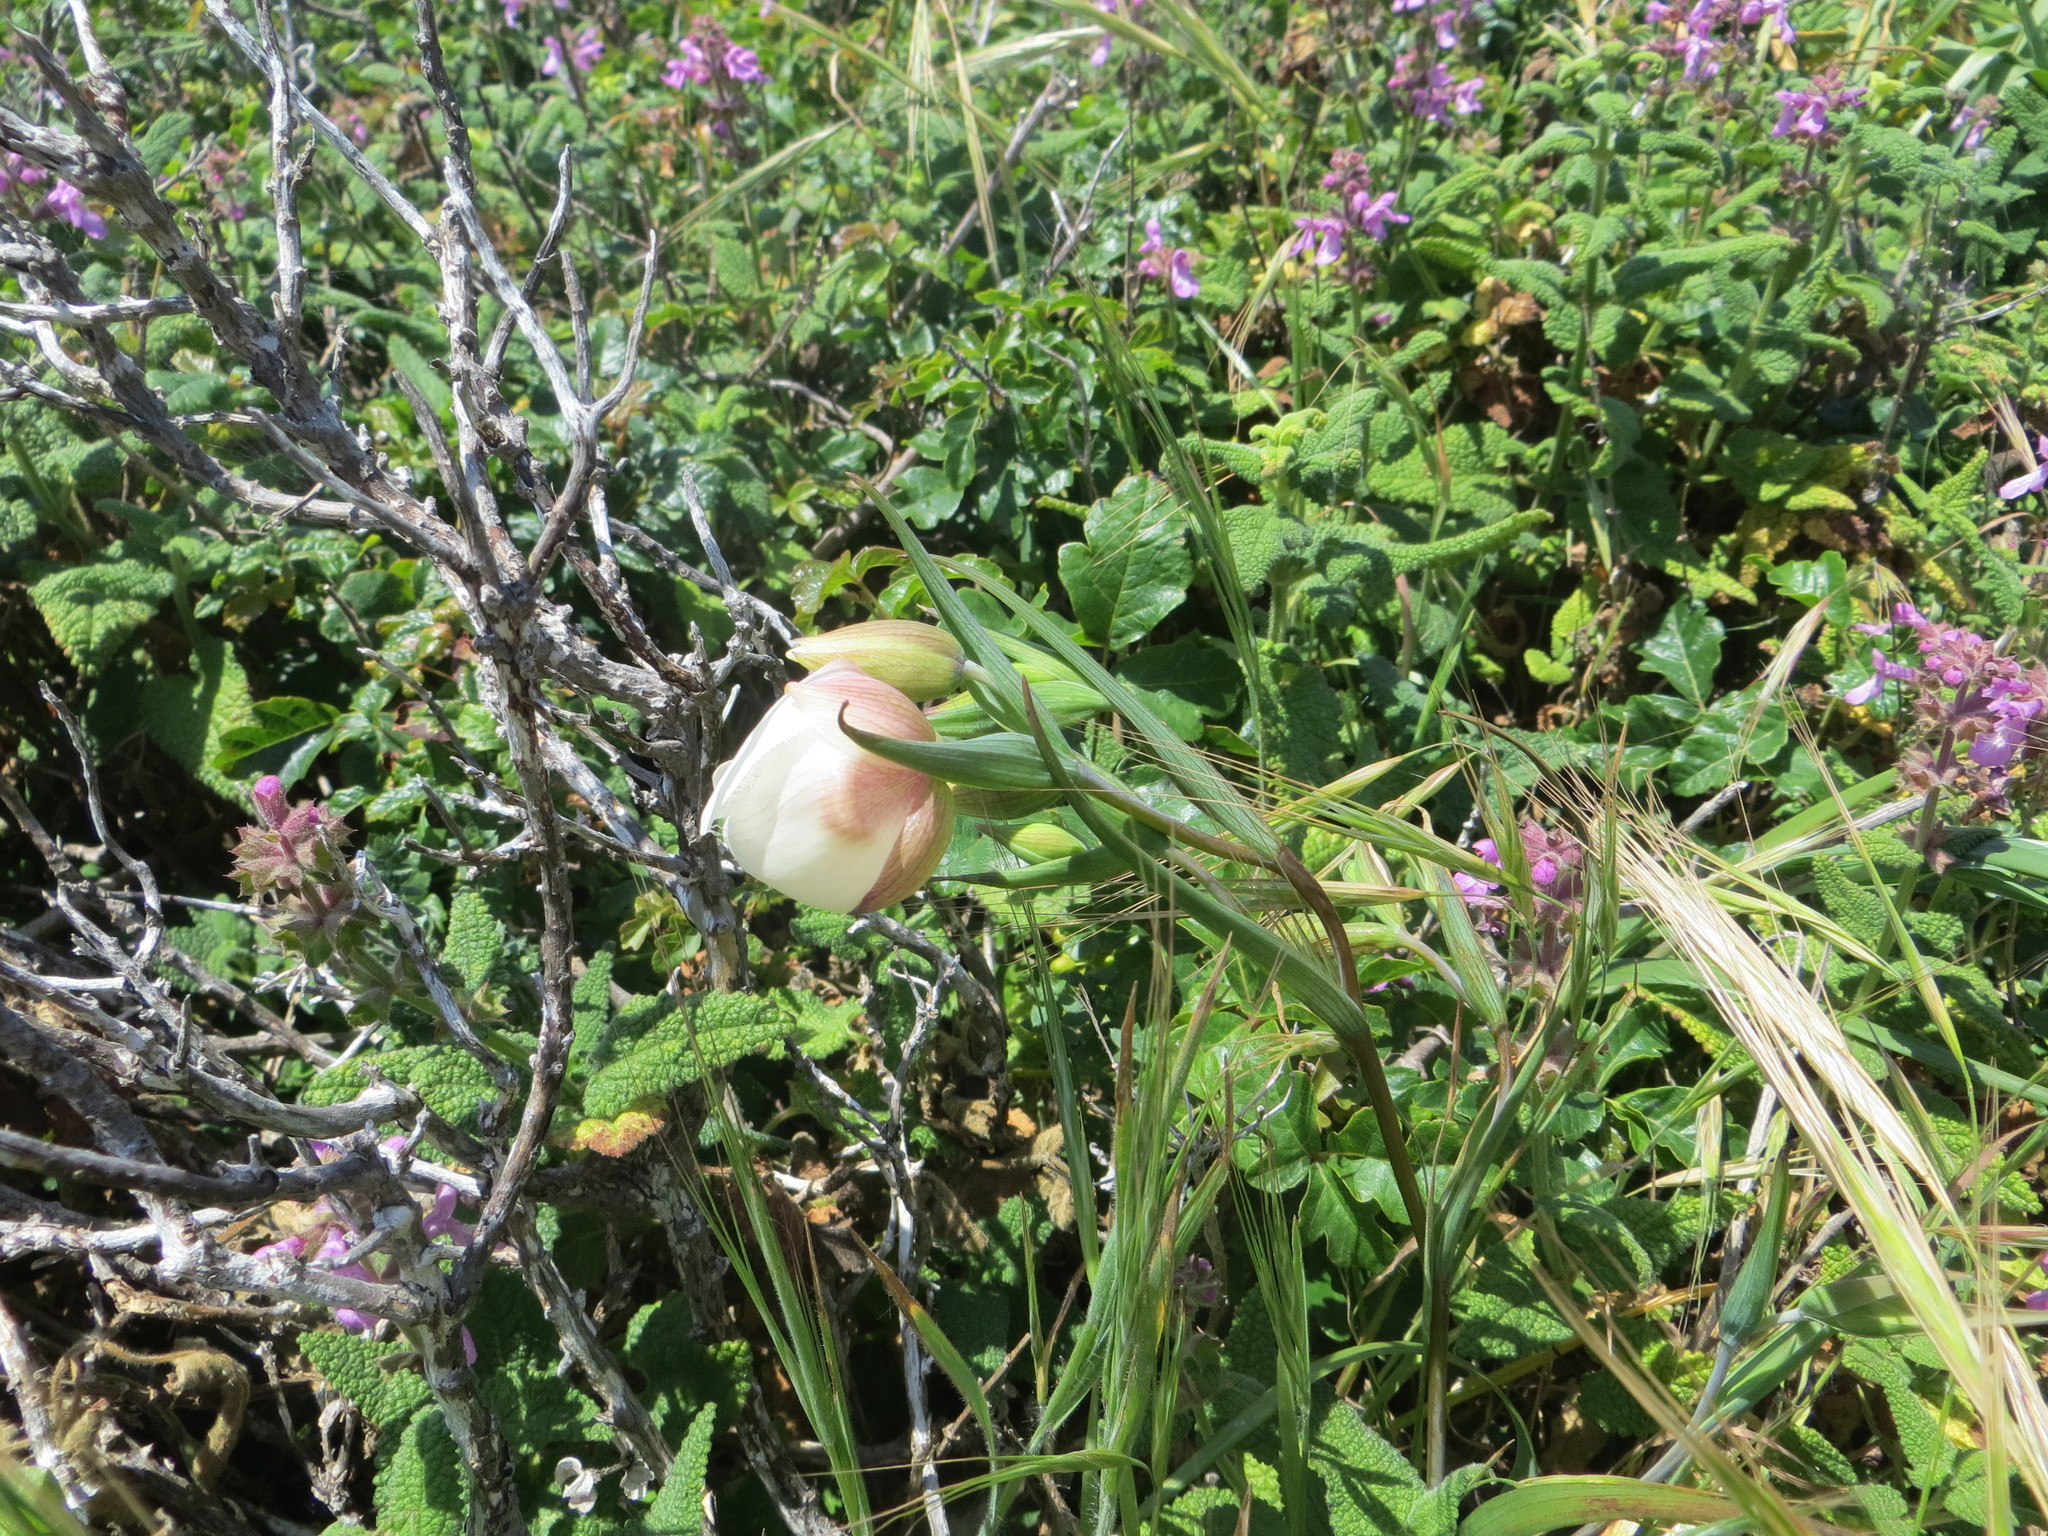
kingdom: Plantae
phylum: Tracheophyta
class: Liliopsida
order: Liliales
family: Liliaceae
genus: Calochortus
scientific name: Calochortus albus
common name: Fairy-lantern
